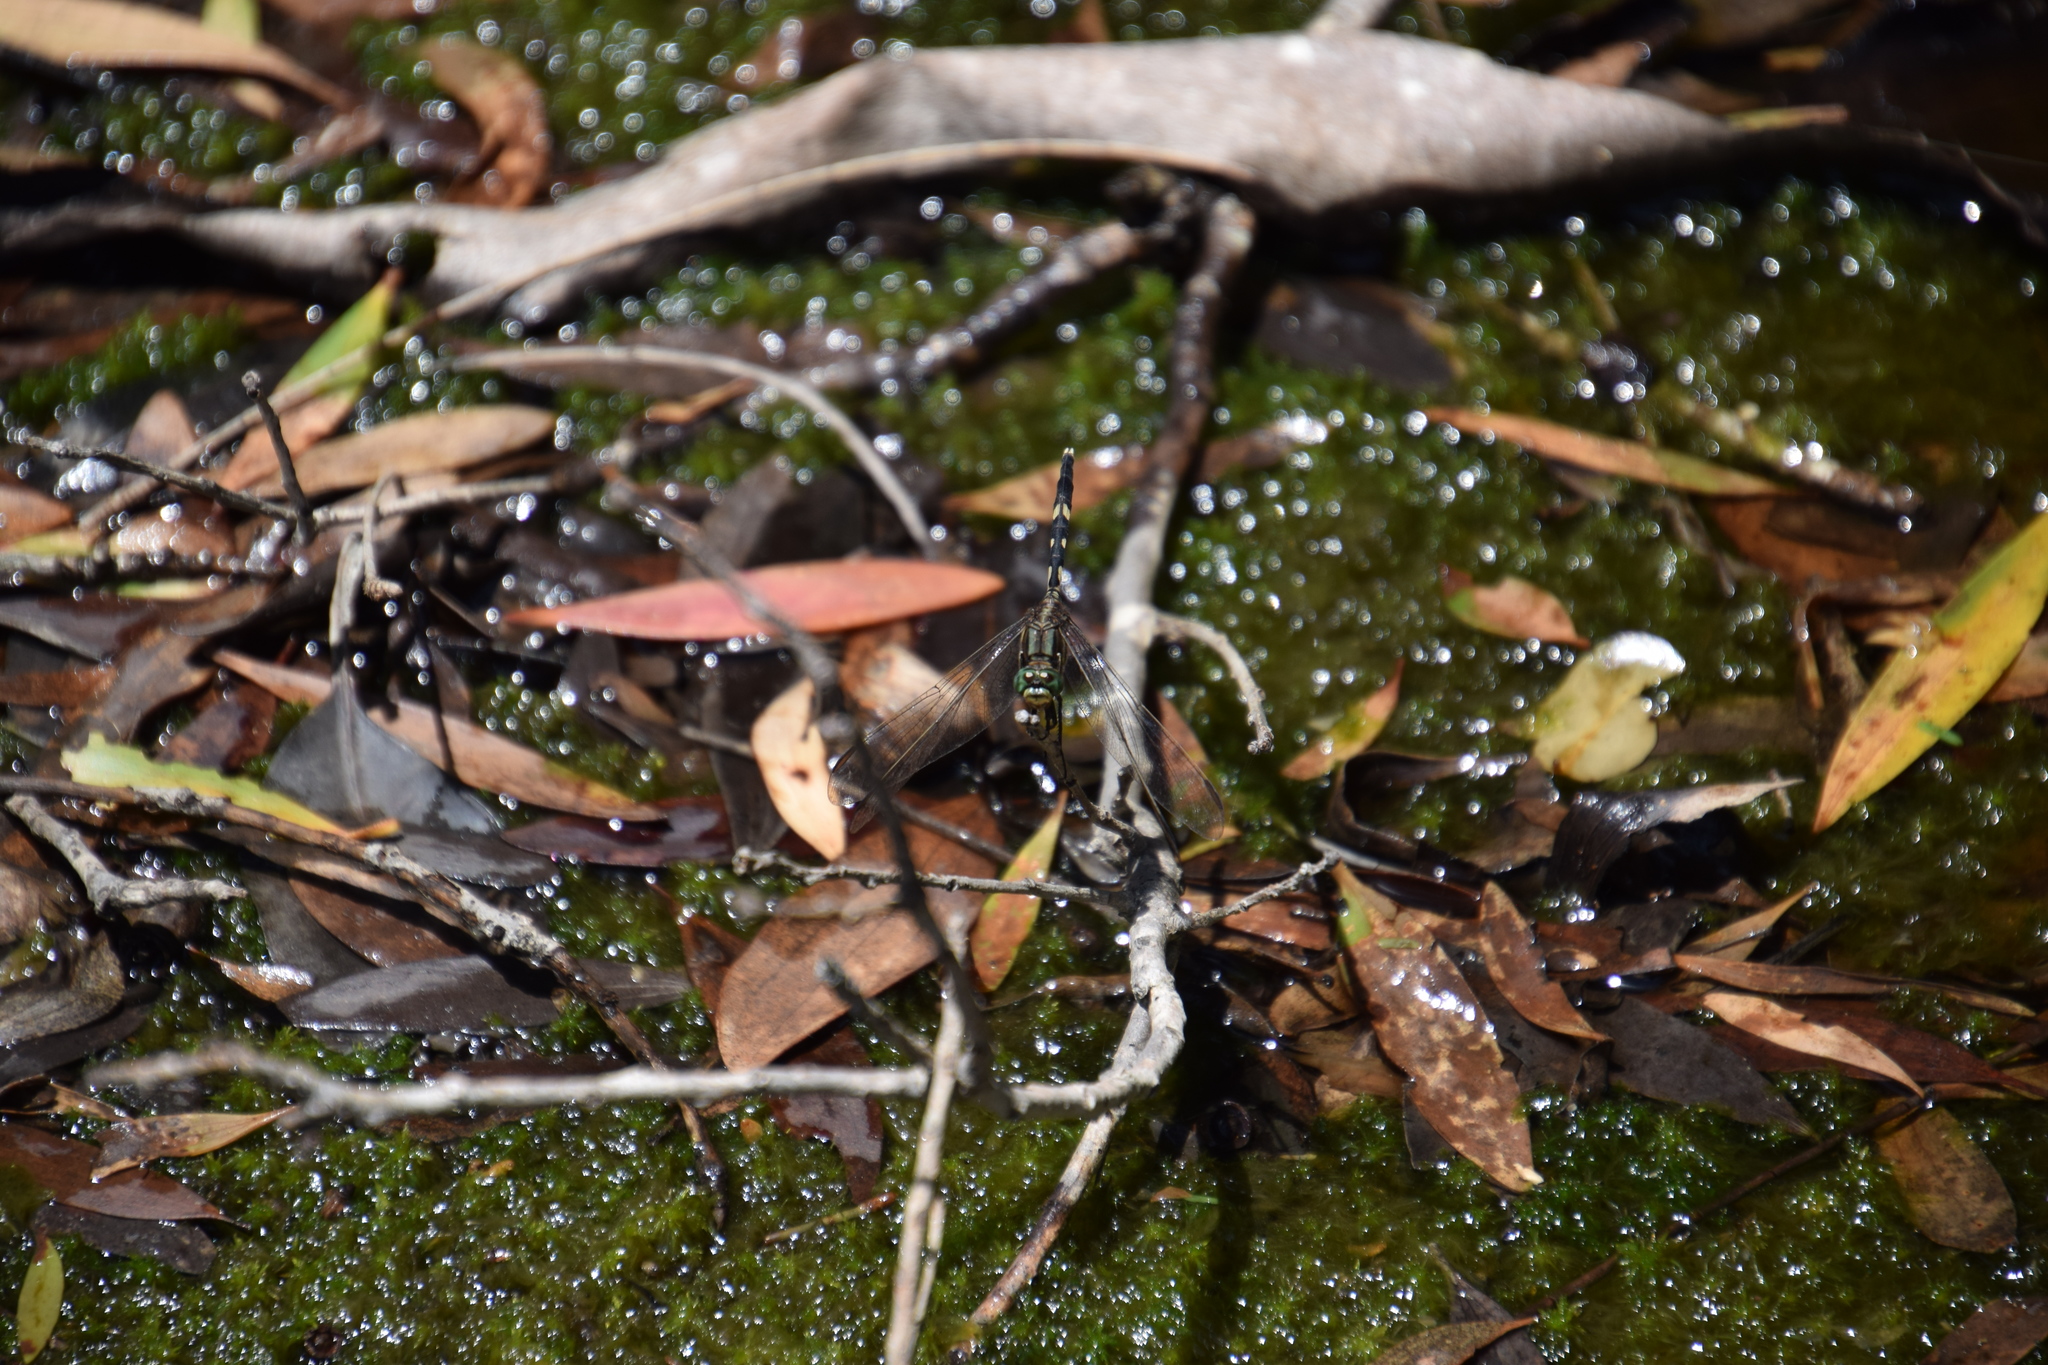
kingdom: Animalia
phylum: Arthropoda
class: Insecta
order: Odonata
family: Libellulidae
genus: Orthetrum
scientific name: Orthetrum sabina
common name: Slender skimmer
